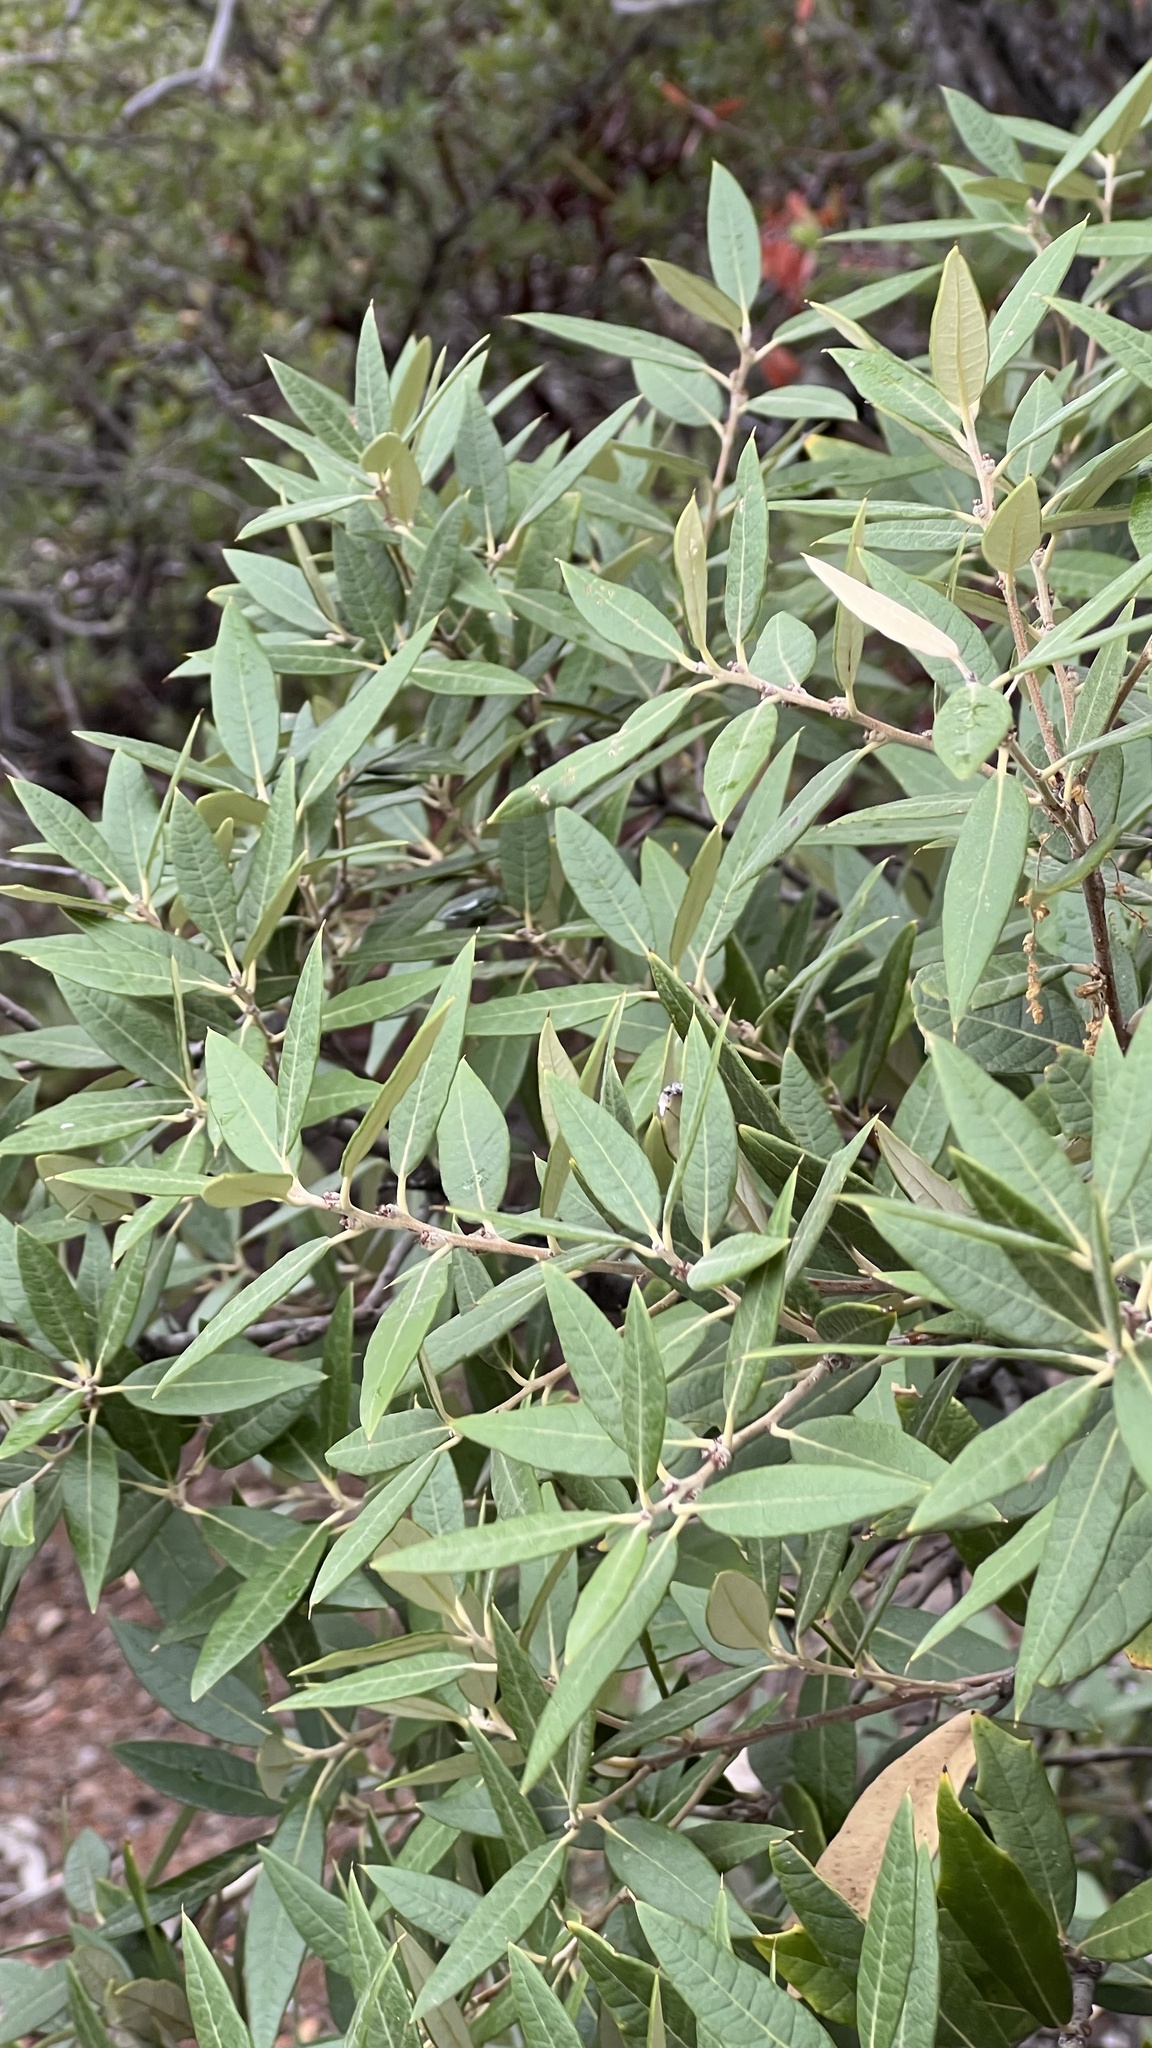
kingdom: Plantae
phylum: Tracheophyta
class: Magnoliopsida
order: Fagales
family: Fagaceae
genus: Quercus
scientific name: Quercus hypoleucoides
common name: Silverleaf oak
